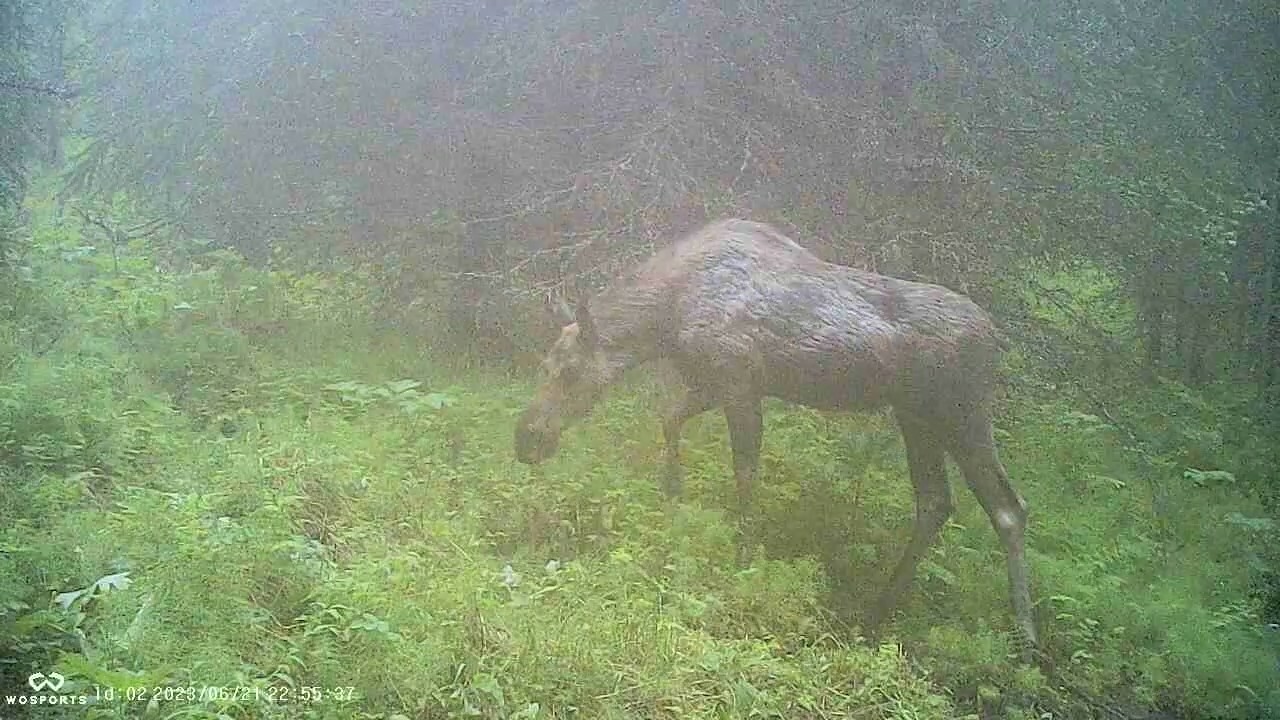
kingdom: Animalia
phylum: Chordata
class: Mammalia
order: Artiodactyla
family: Cervidae
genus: Alces
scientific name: Alces alces
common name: Moose
